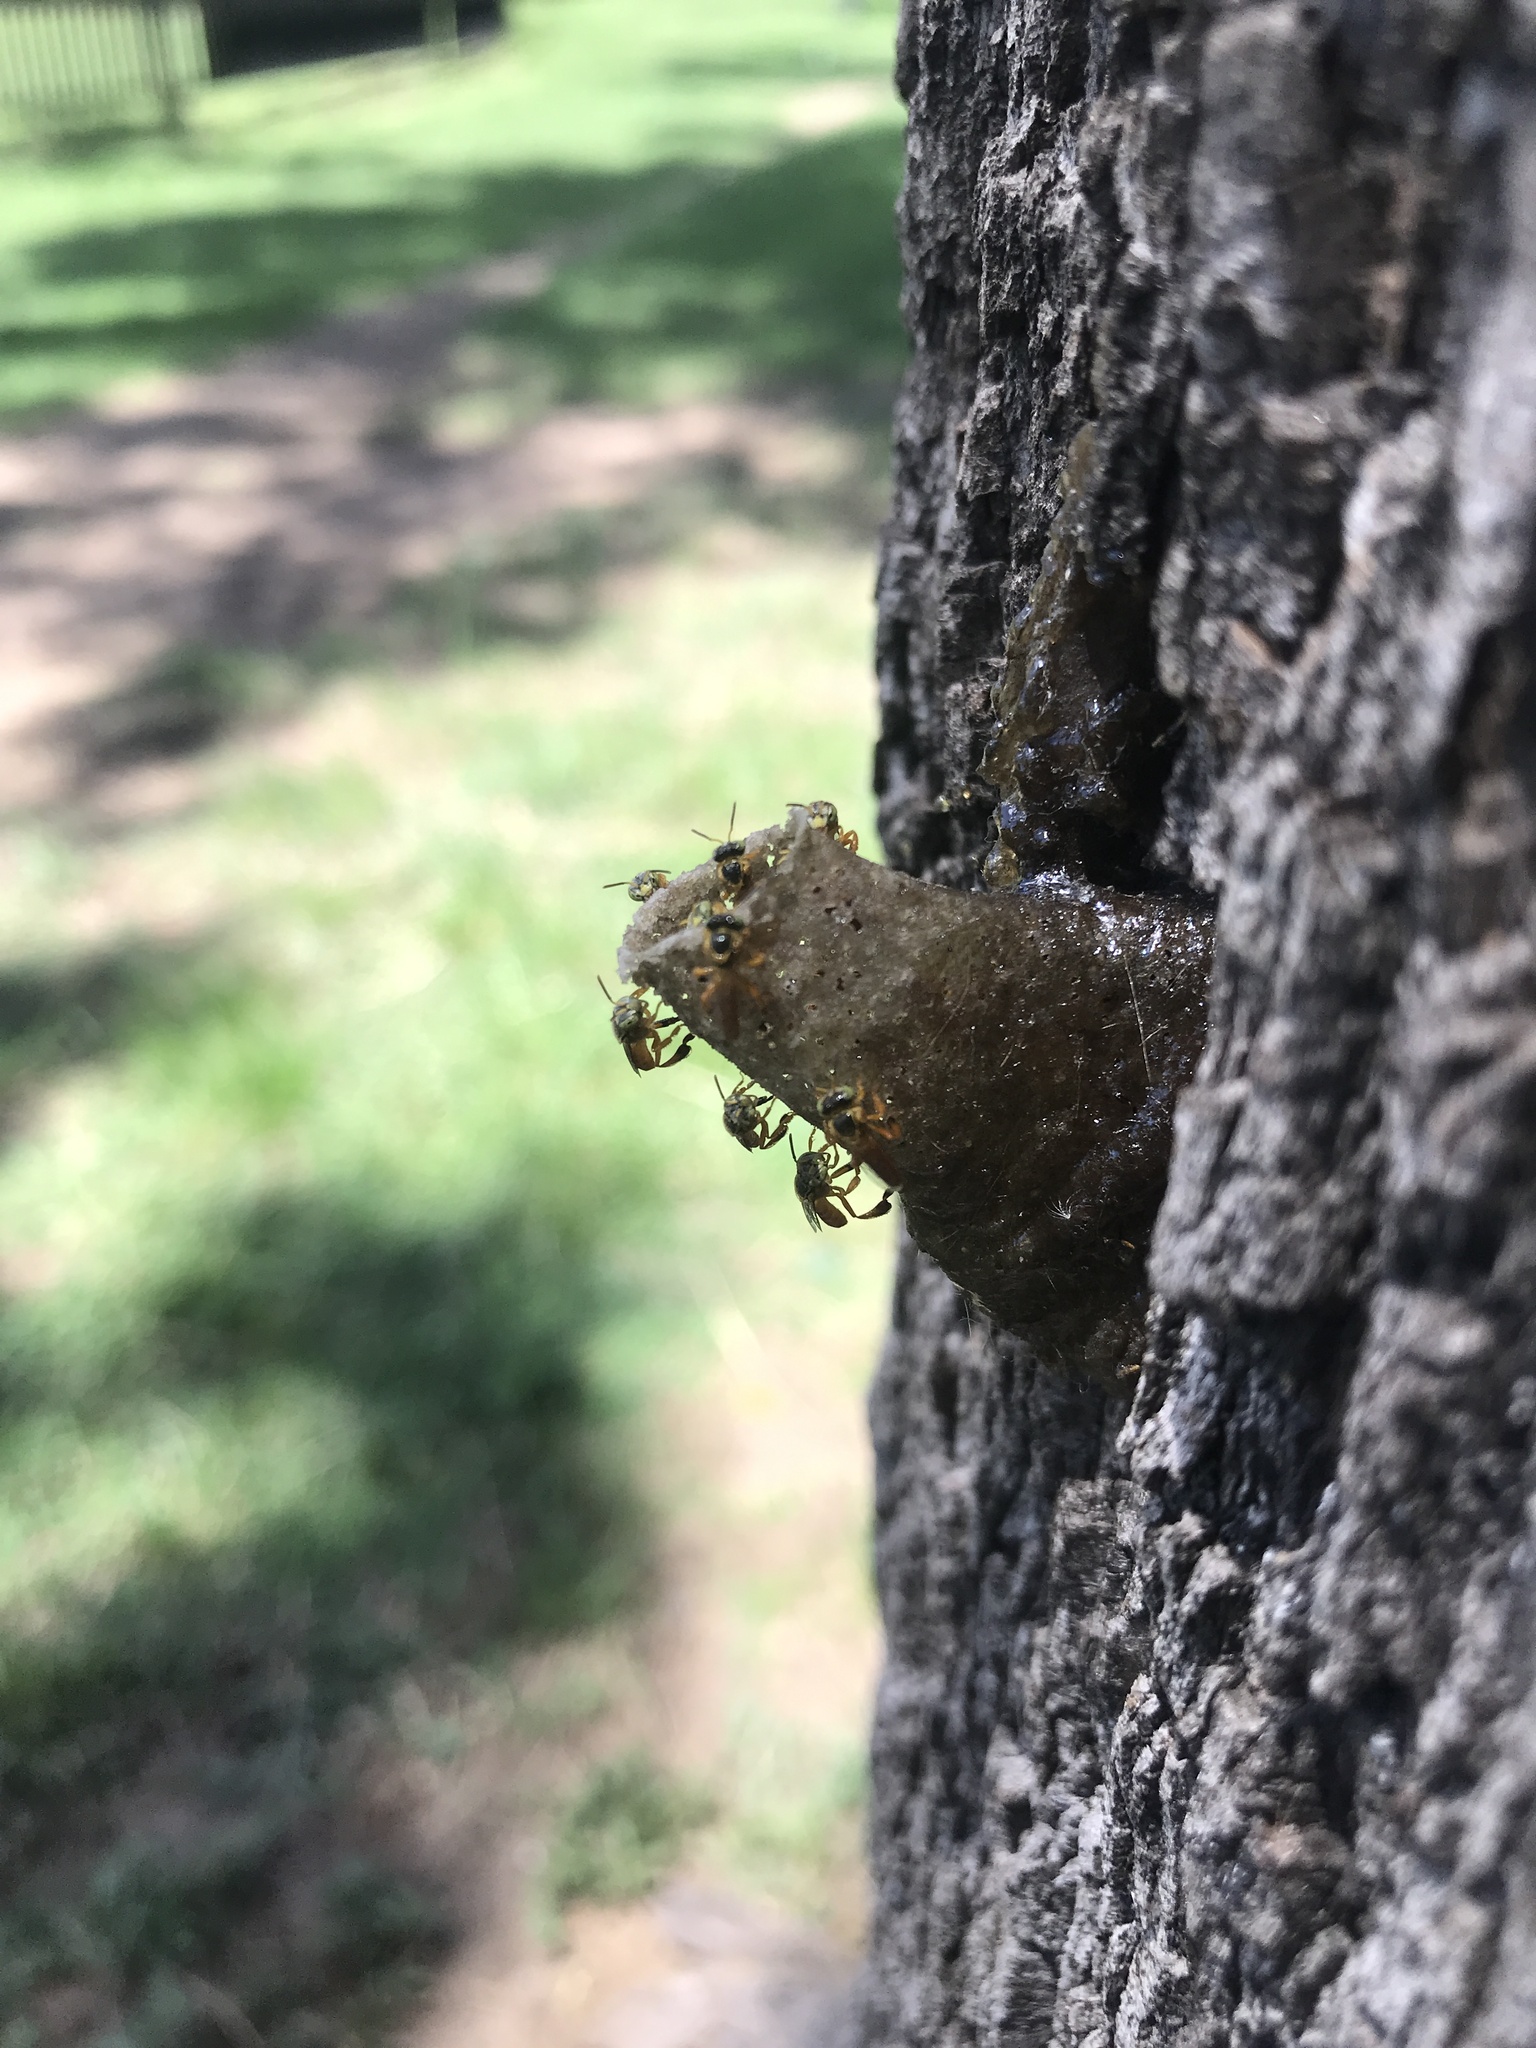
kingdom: Animalia
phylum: Arthropoda
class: Insecta
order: Hymenoptera
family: Apidae
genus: Tetragonisca
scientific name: Tetragonisca fiebrigi
